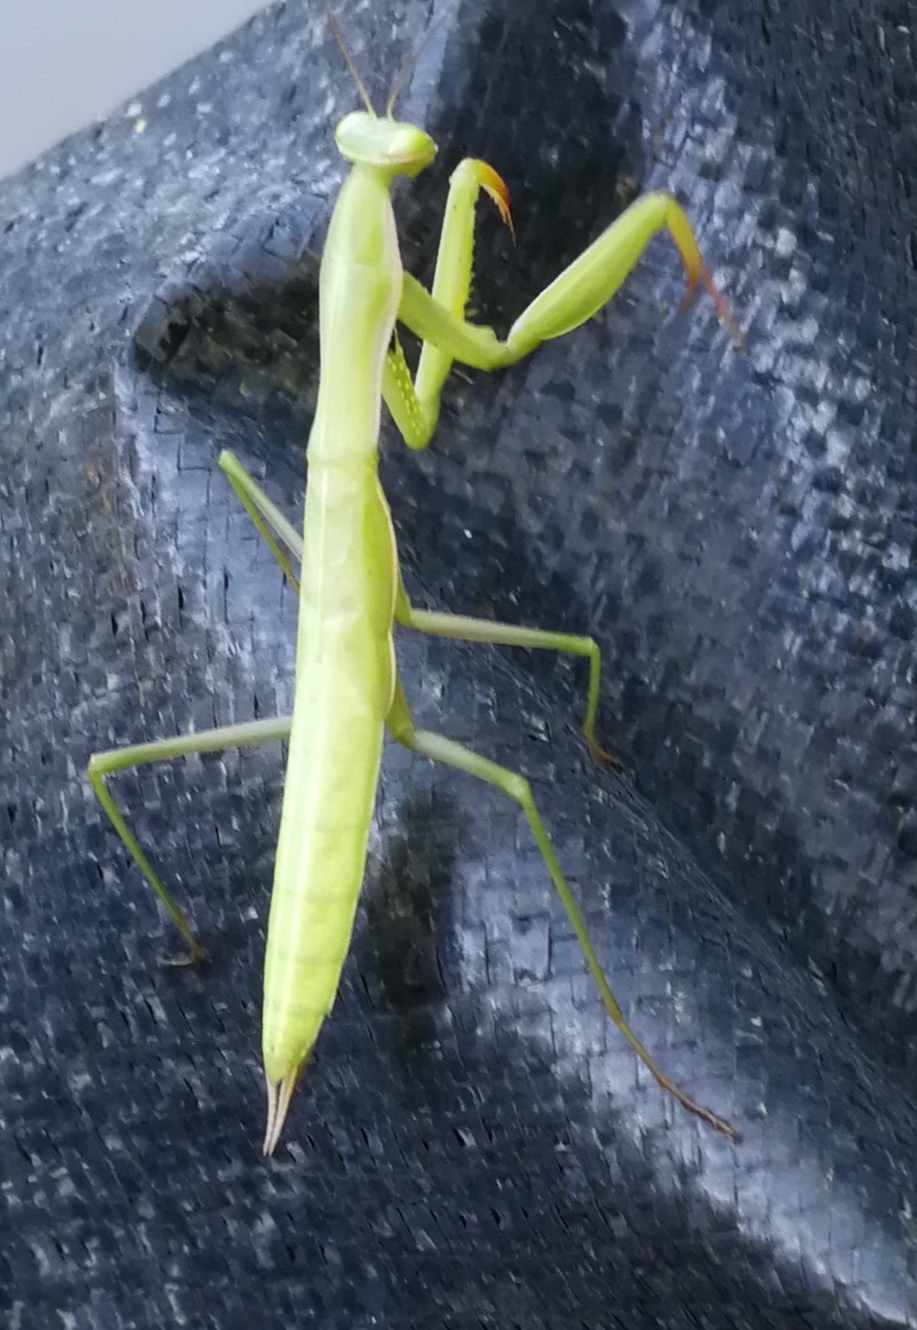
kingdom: Animalia
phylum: Arthropoda
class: Insecta
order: Mantodea
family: Mantidae
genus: Mantis
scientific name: Mantis religiosa
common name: Praying mantis
